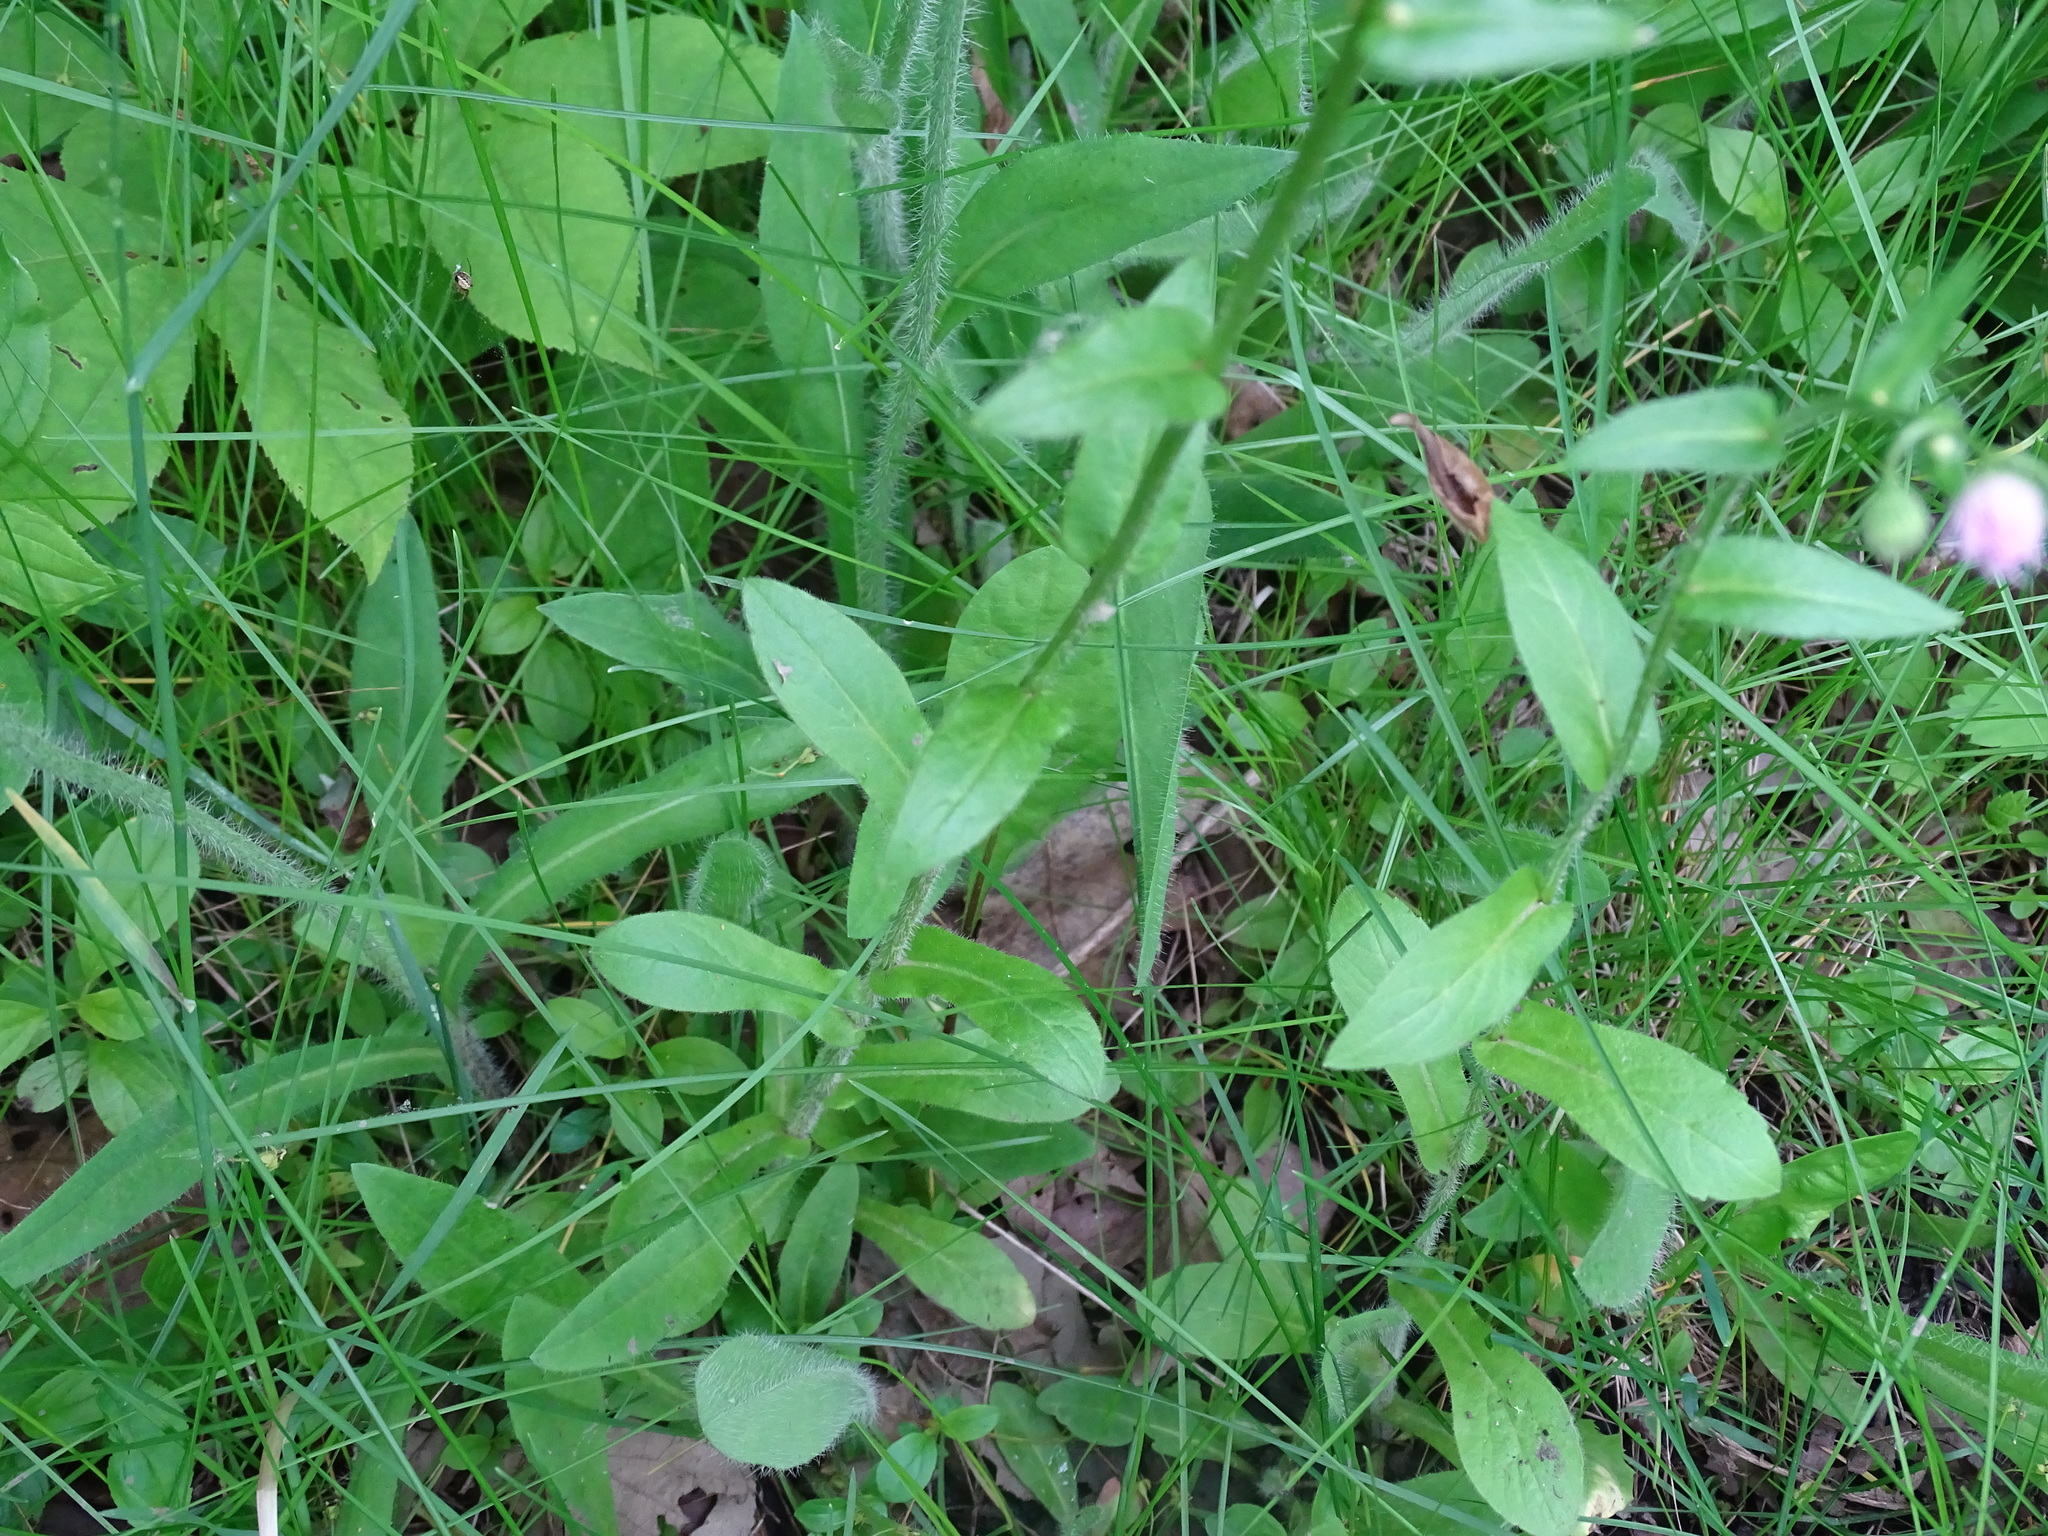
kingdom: Plantae
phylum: Tracheophyta
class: Magnoliopsida
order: Asterales
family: Asteraceae
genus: Erigeron
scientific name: Erigeron philadelphicus
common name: Robin's-plantain
